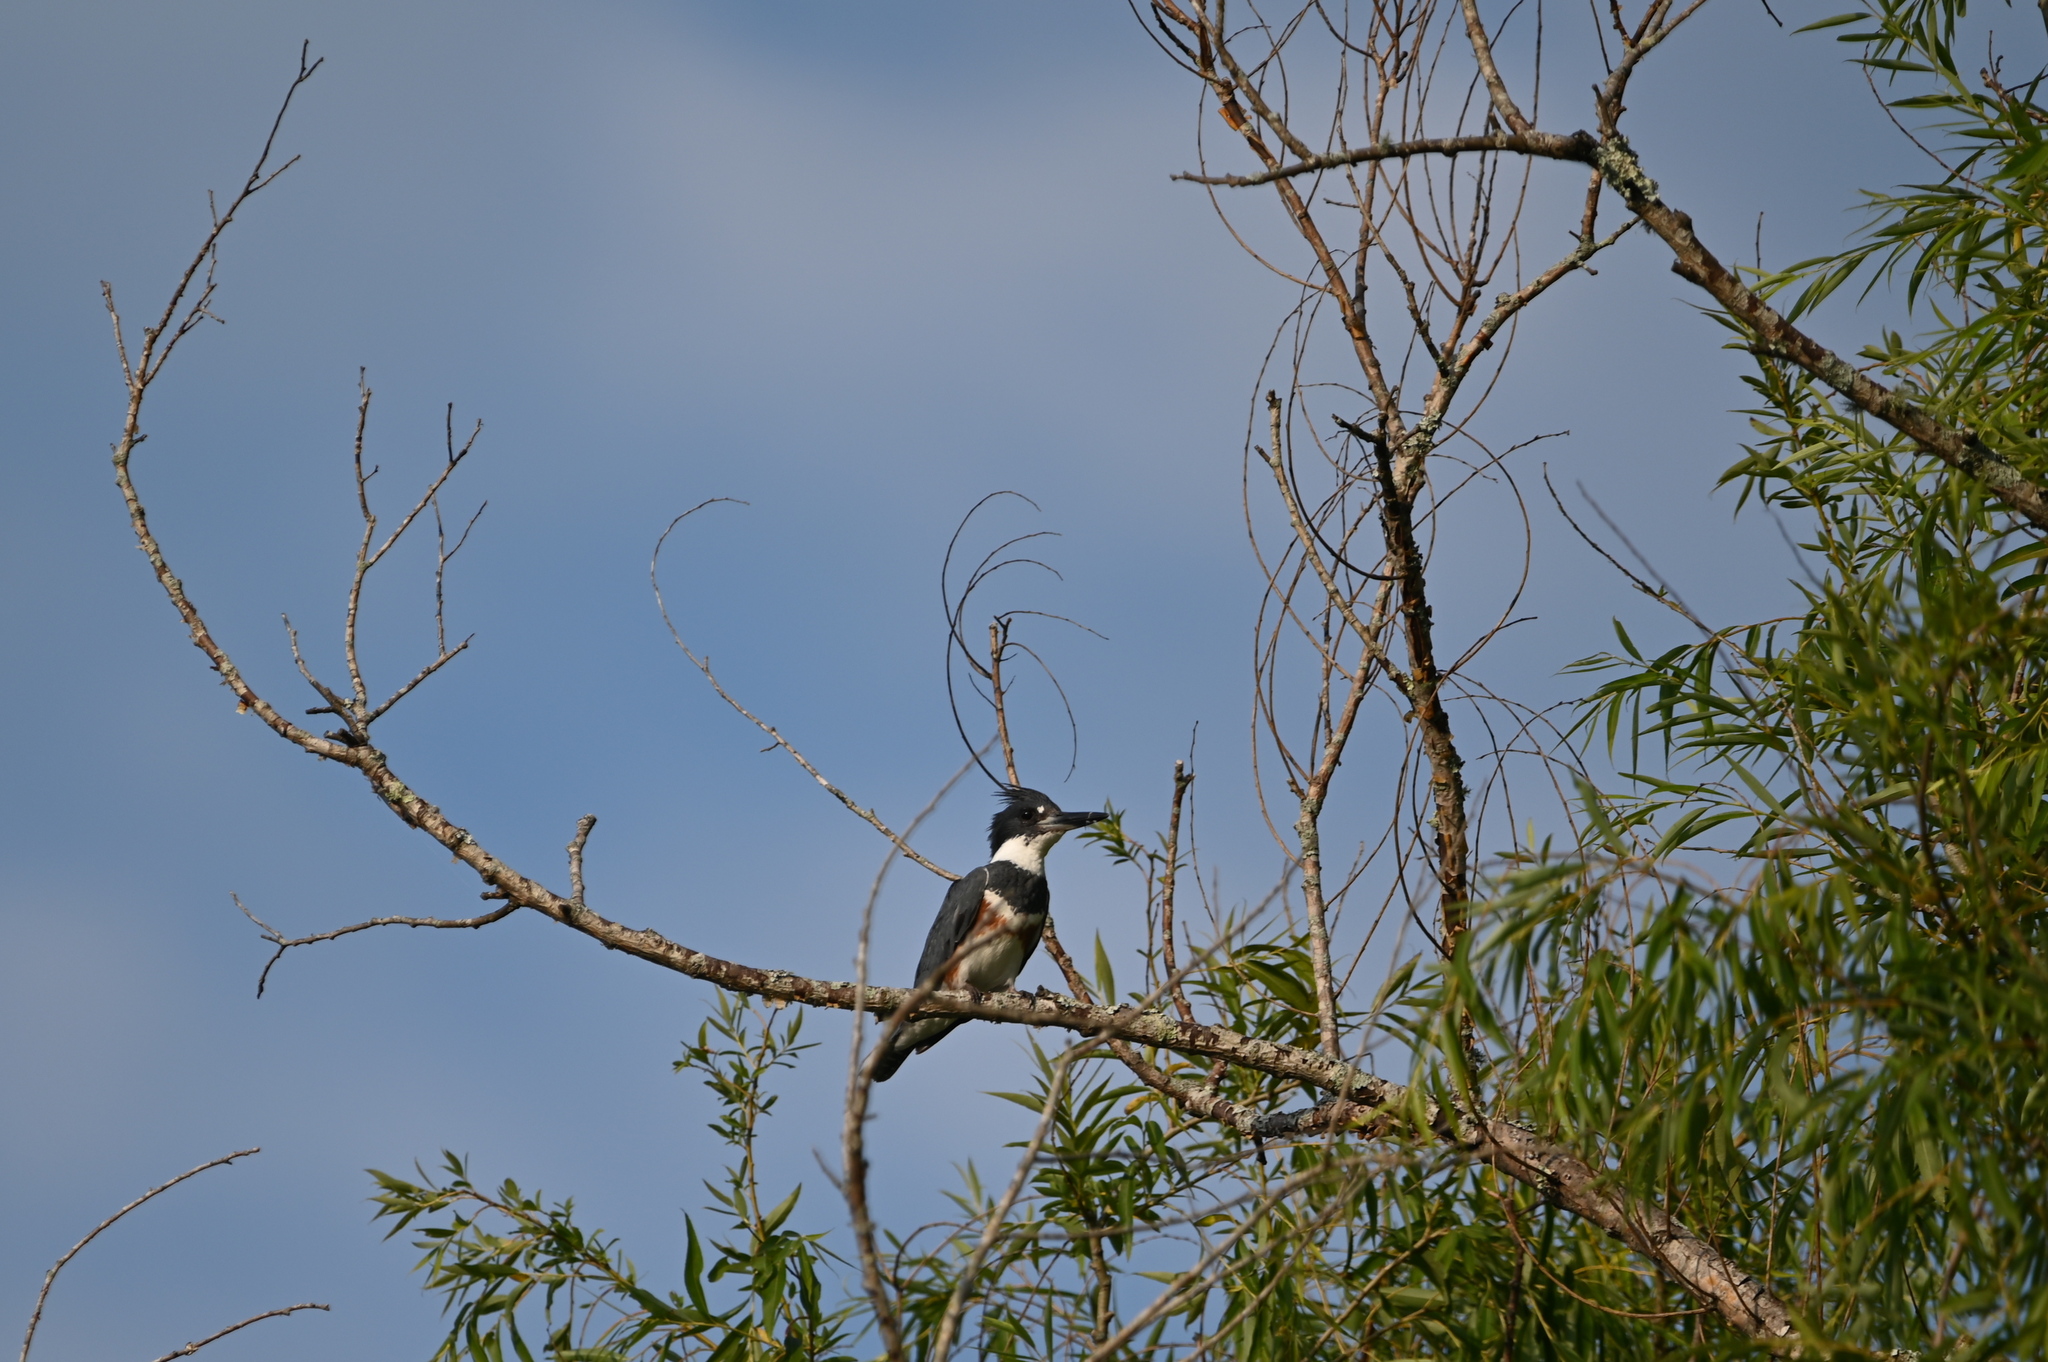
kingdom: Animalia
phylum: Chordata
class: Aves
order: Coraciiformes
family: Alcedinidae
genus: Megaceryle
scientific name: Megaceryle alcyon
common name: Belted kingfisher
